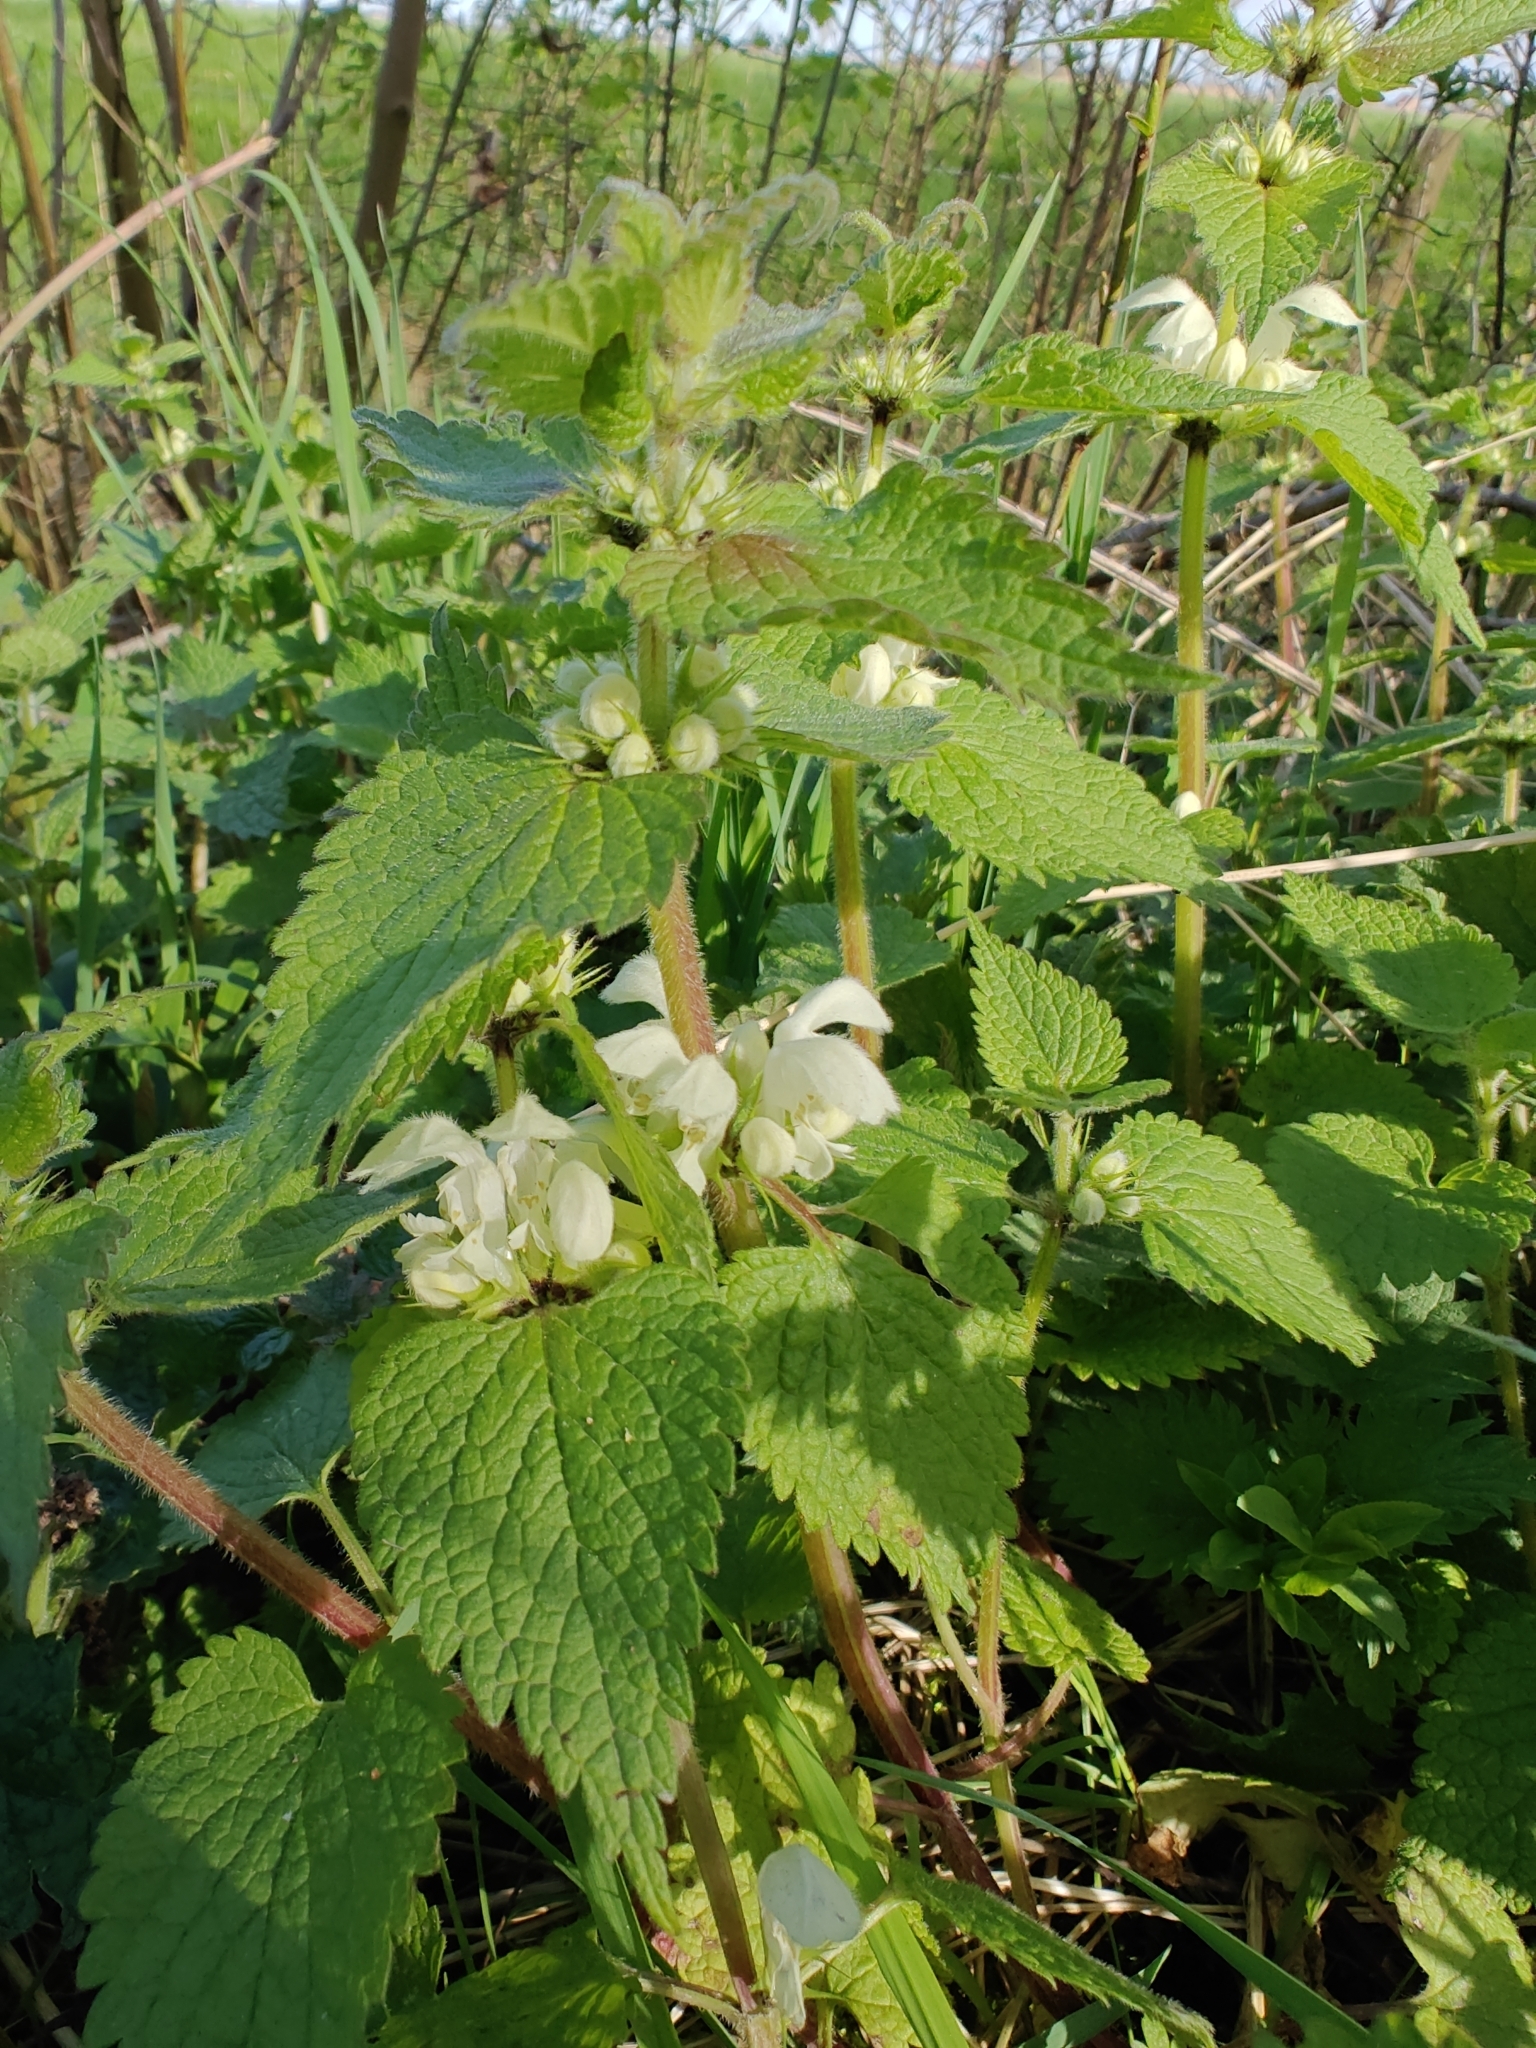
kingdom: Plantae
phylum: Tracheophyta
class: Magnoliopsida
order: Lamiales
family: Lamiaceae
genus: Lamium
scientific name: Lamium album
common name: White dead-nettle
